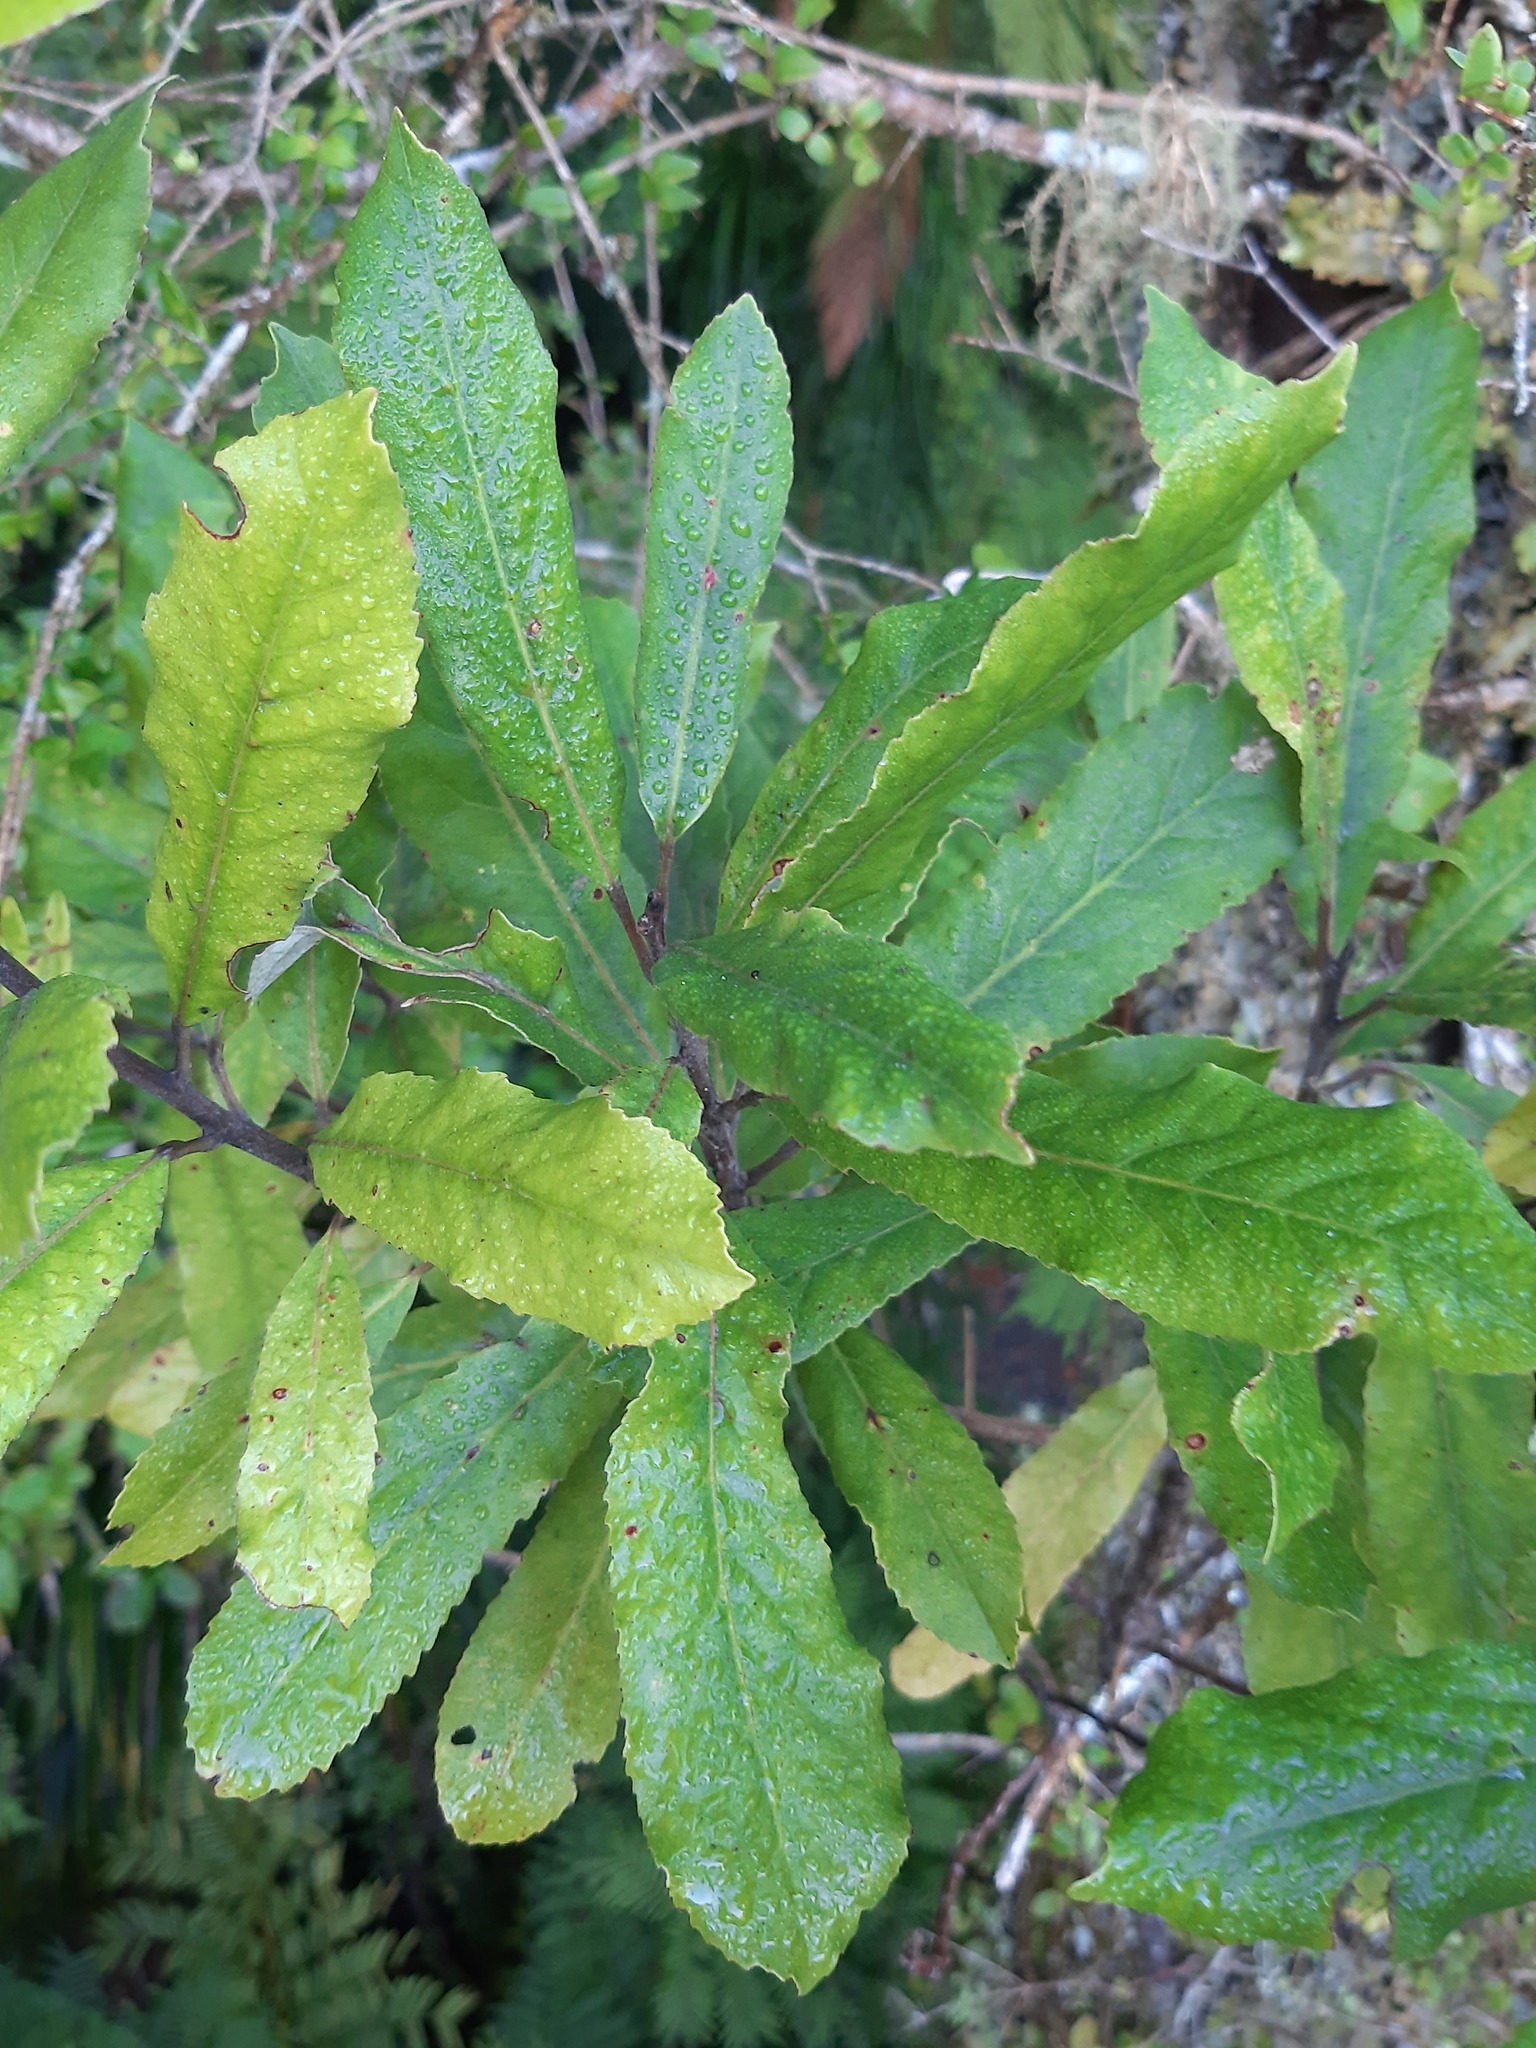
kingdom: Plantae
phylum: Tracheophyta
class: Magnoliopsida
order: Oxalidales
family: Elaeocarpaceae
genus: Elaeocarpus
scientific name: Elaeocarpus dentatus
